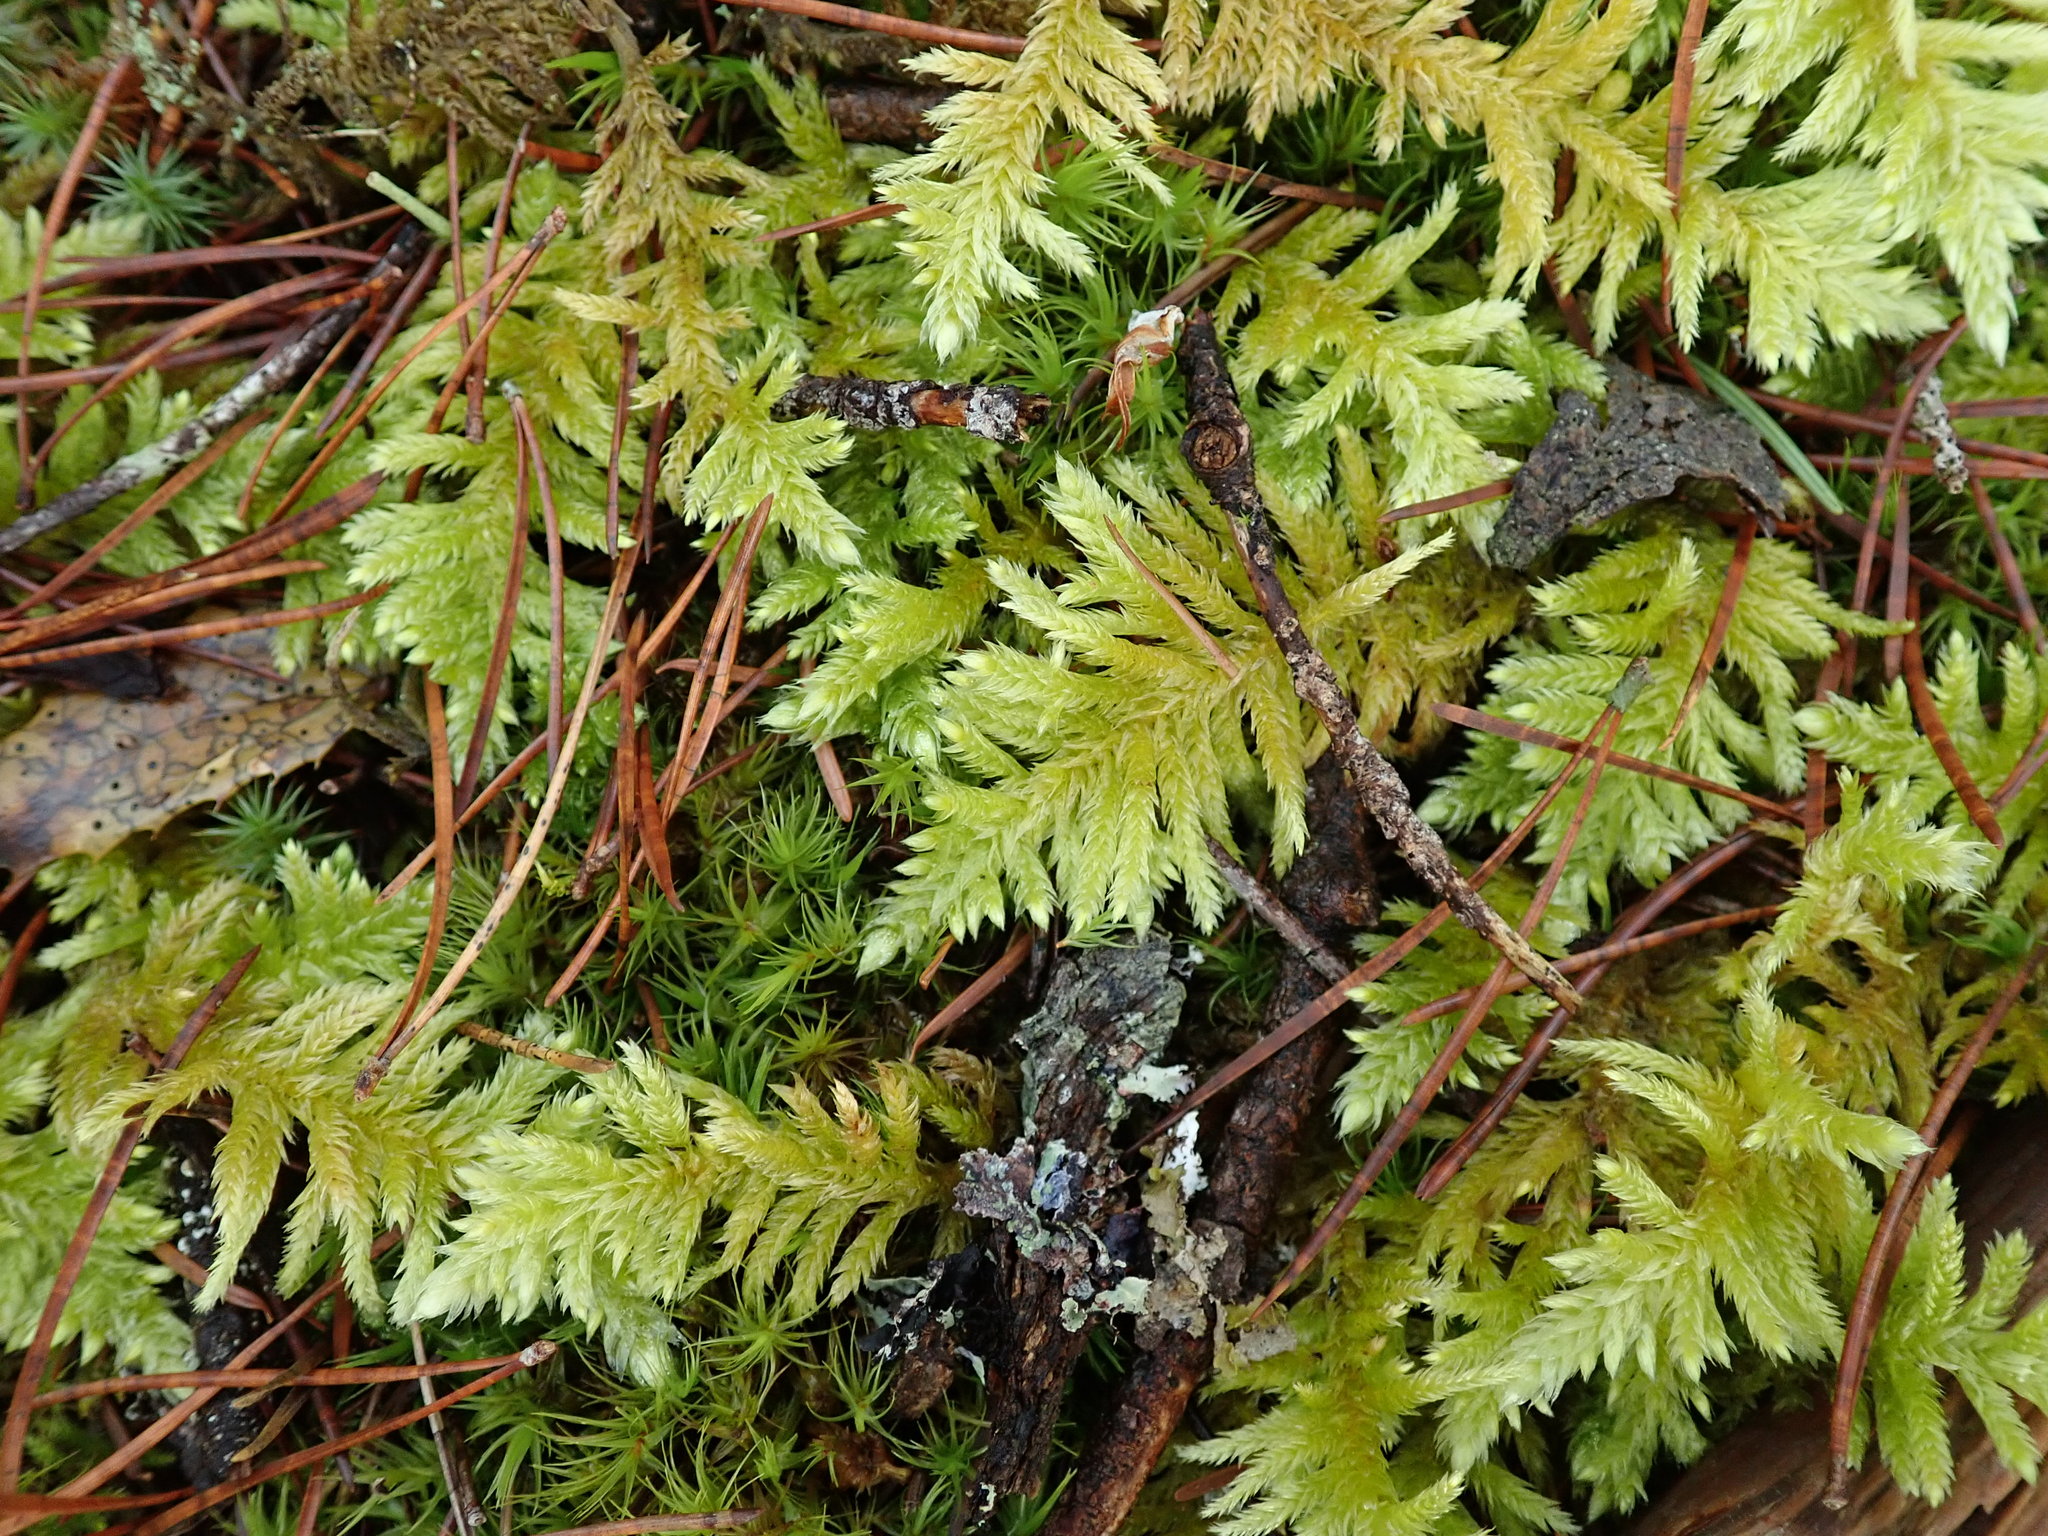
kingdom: Plantae
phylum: Bryophyta
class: Bryopsida
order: Hypnales
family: Brachytheciaceae
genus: Homalothecium
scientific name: Homalothecium megaptilum
